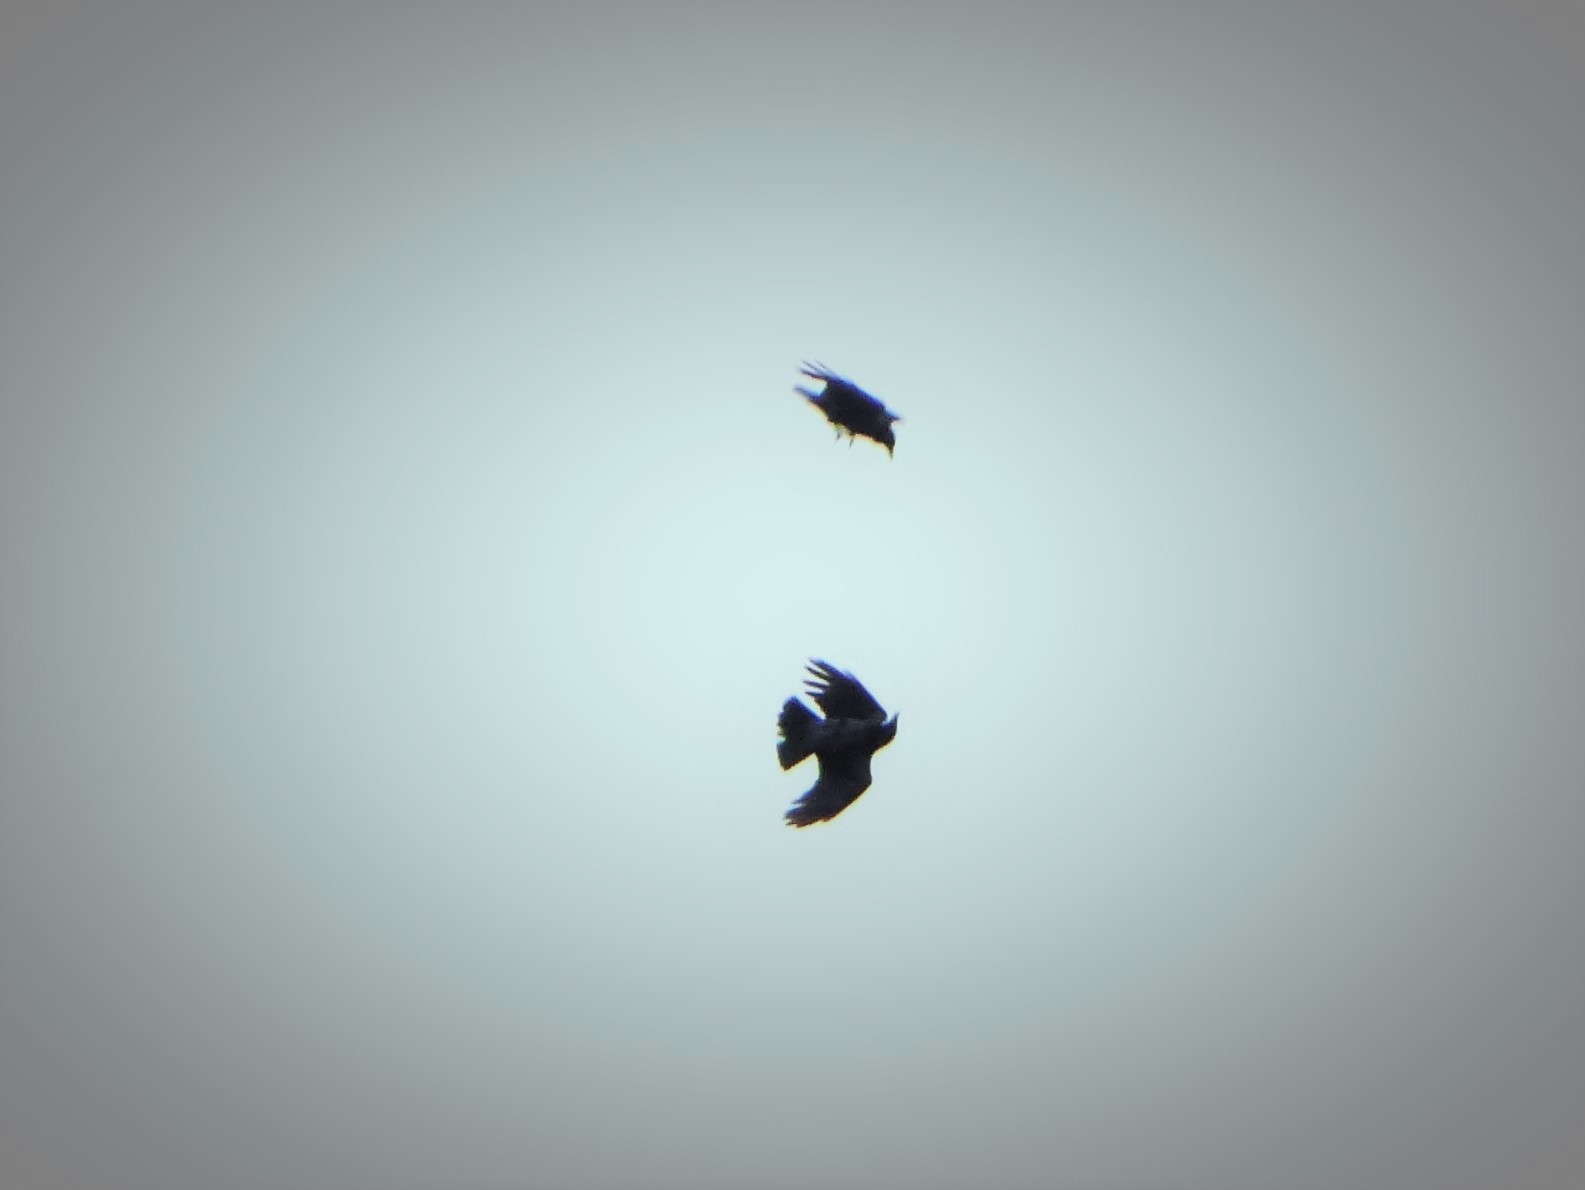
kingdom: Animalia
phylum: Chordata
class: Aves
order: Passeriformes
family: Corvidae
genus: Corvus
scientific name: Corvus cornix
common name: Hooded crow
